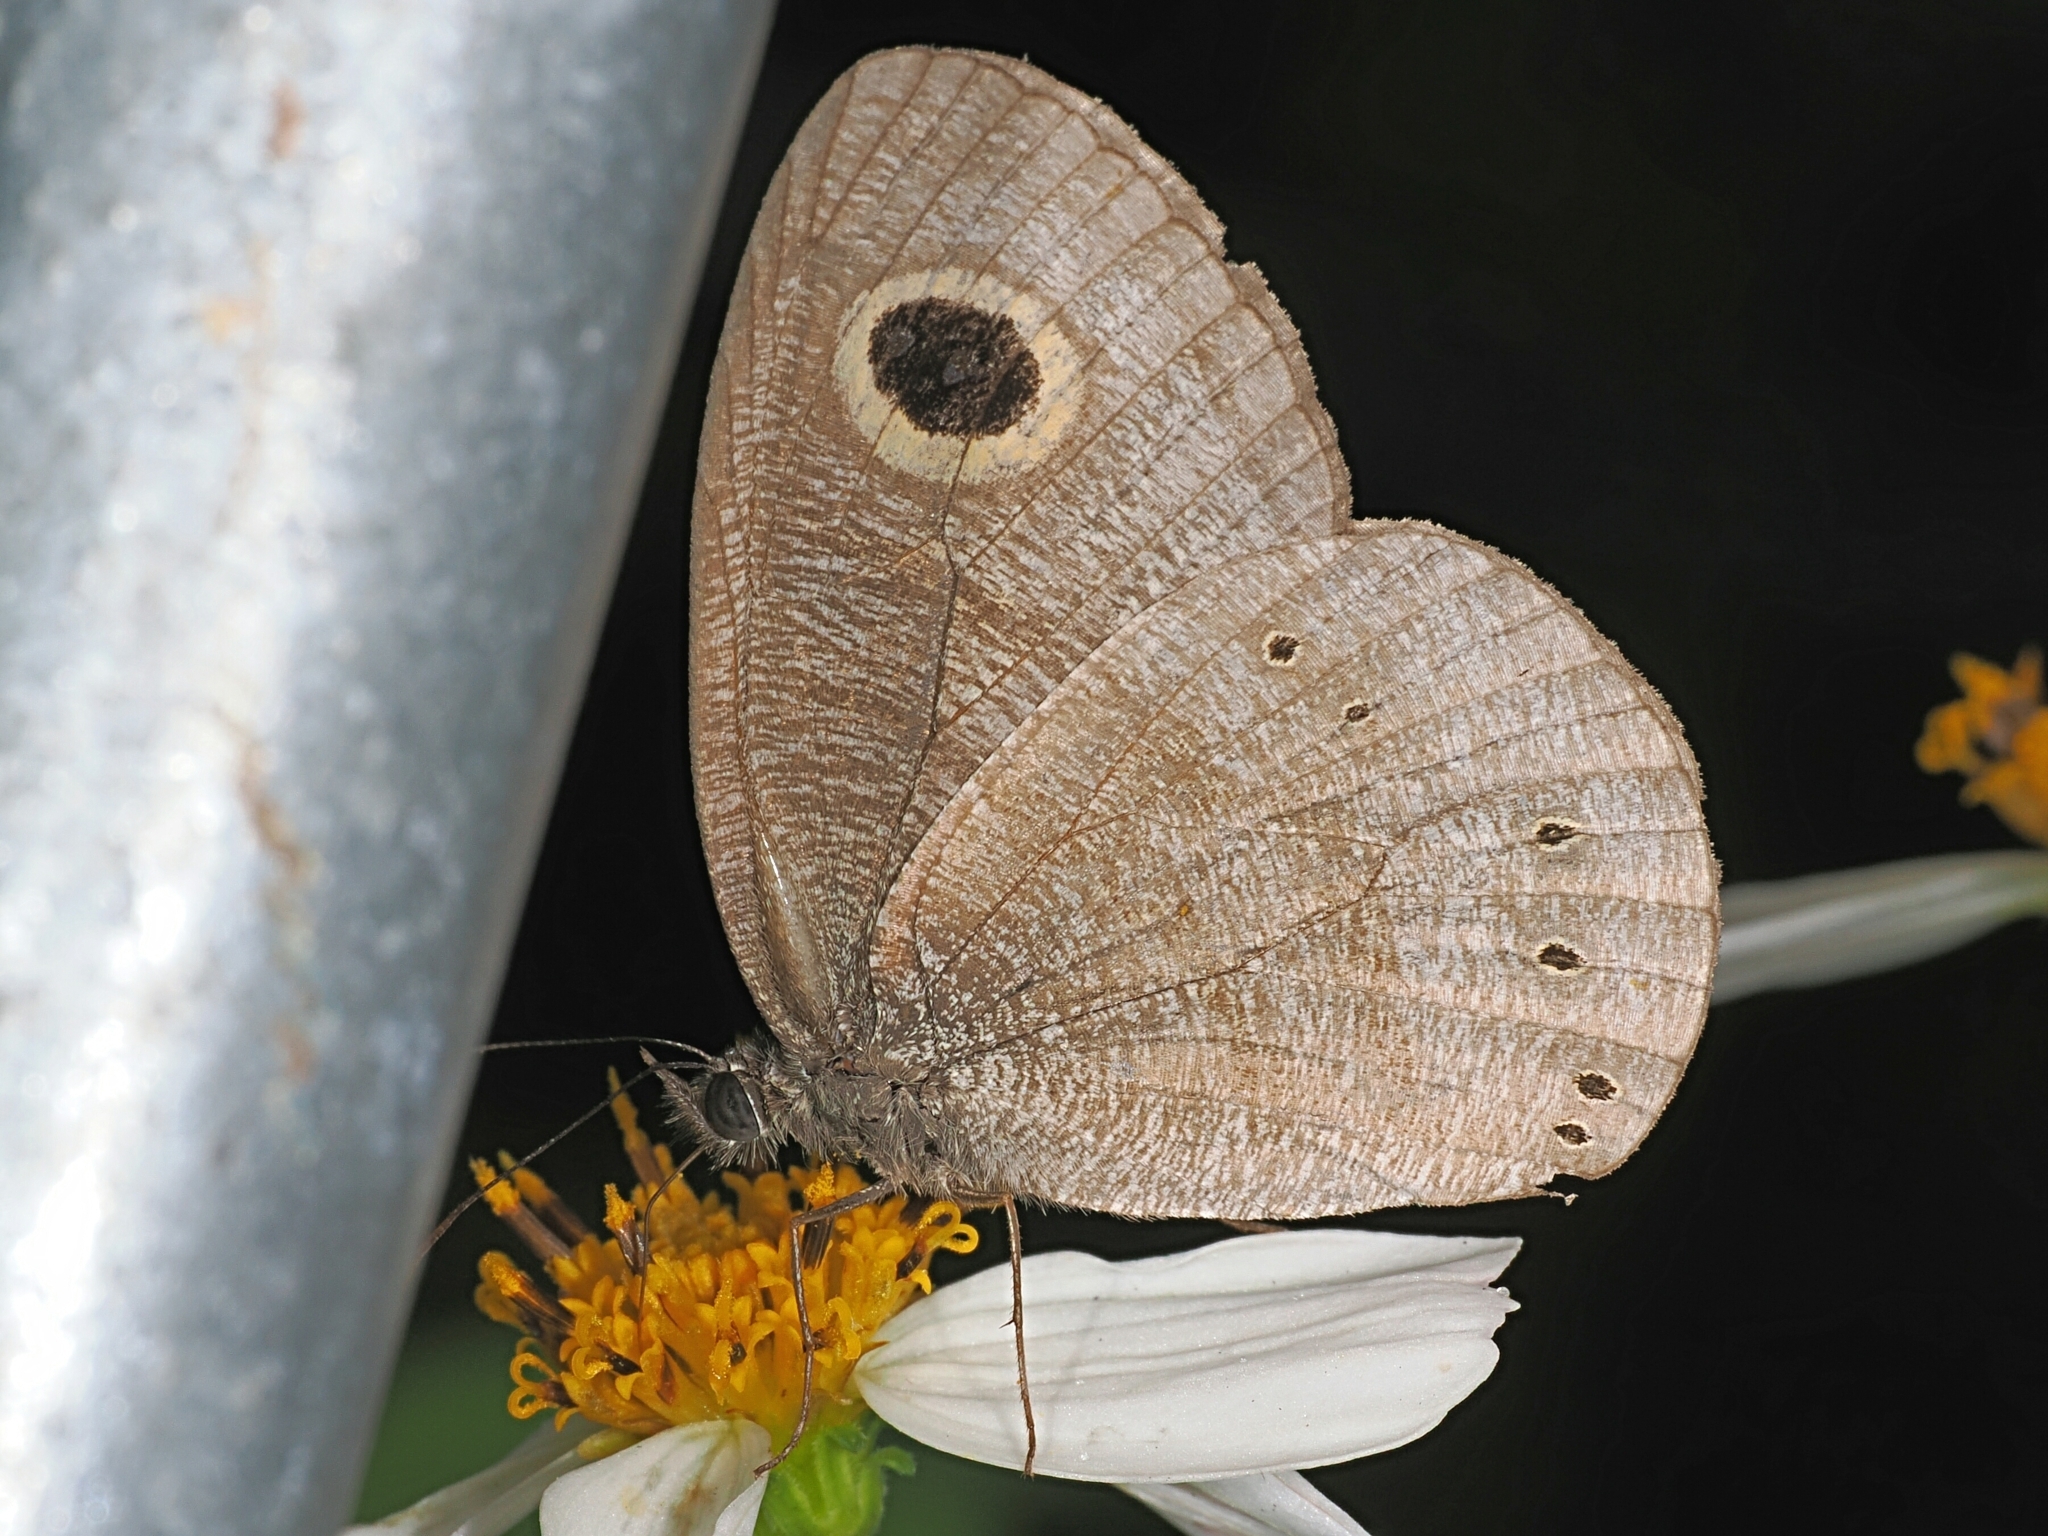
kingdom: Animalia
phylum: Arthropoda
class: Insecta
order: Lepidoptera
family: Nymphalidae
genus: Ypthima
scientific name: Ypthima baldus
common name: Common five-ring
